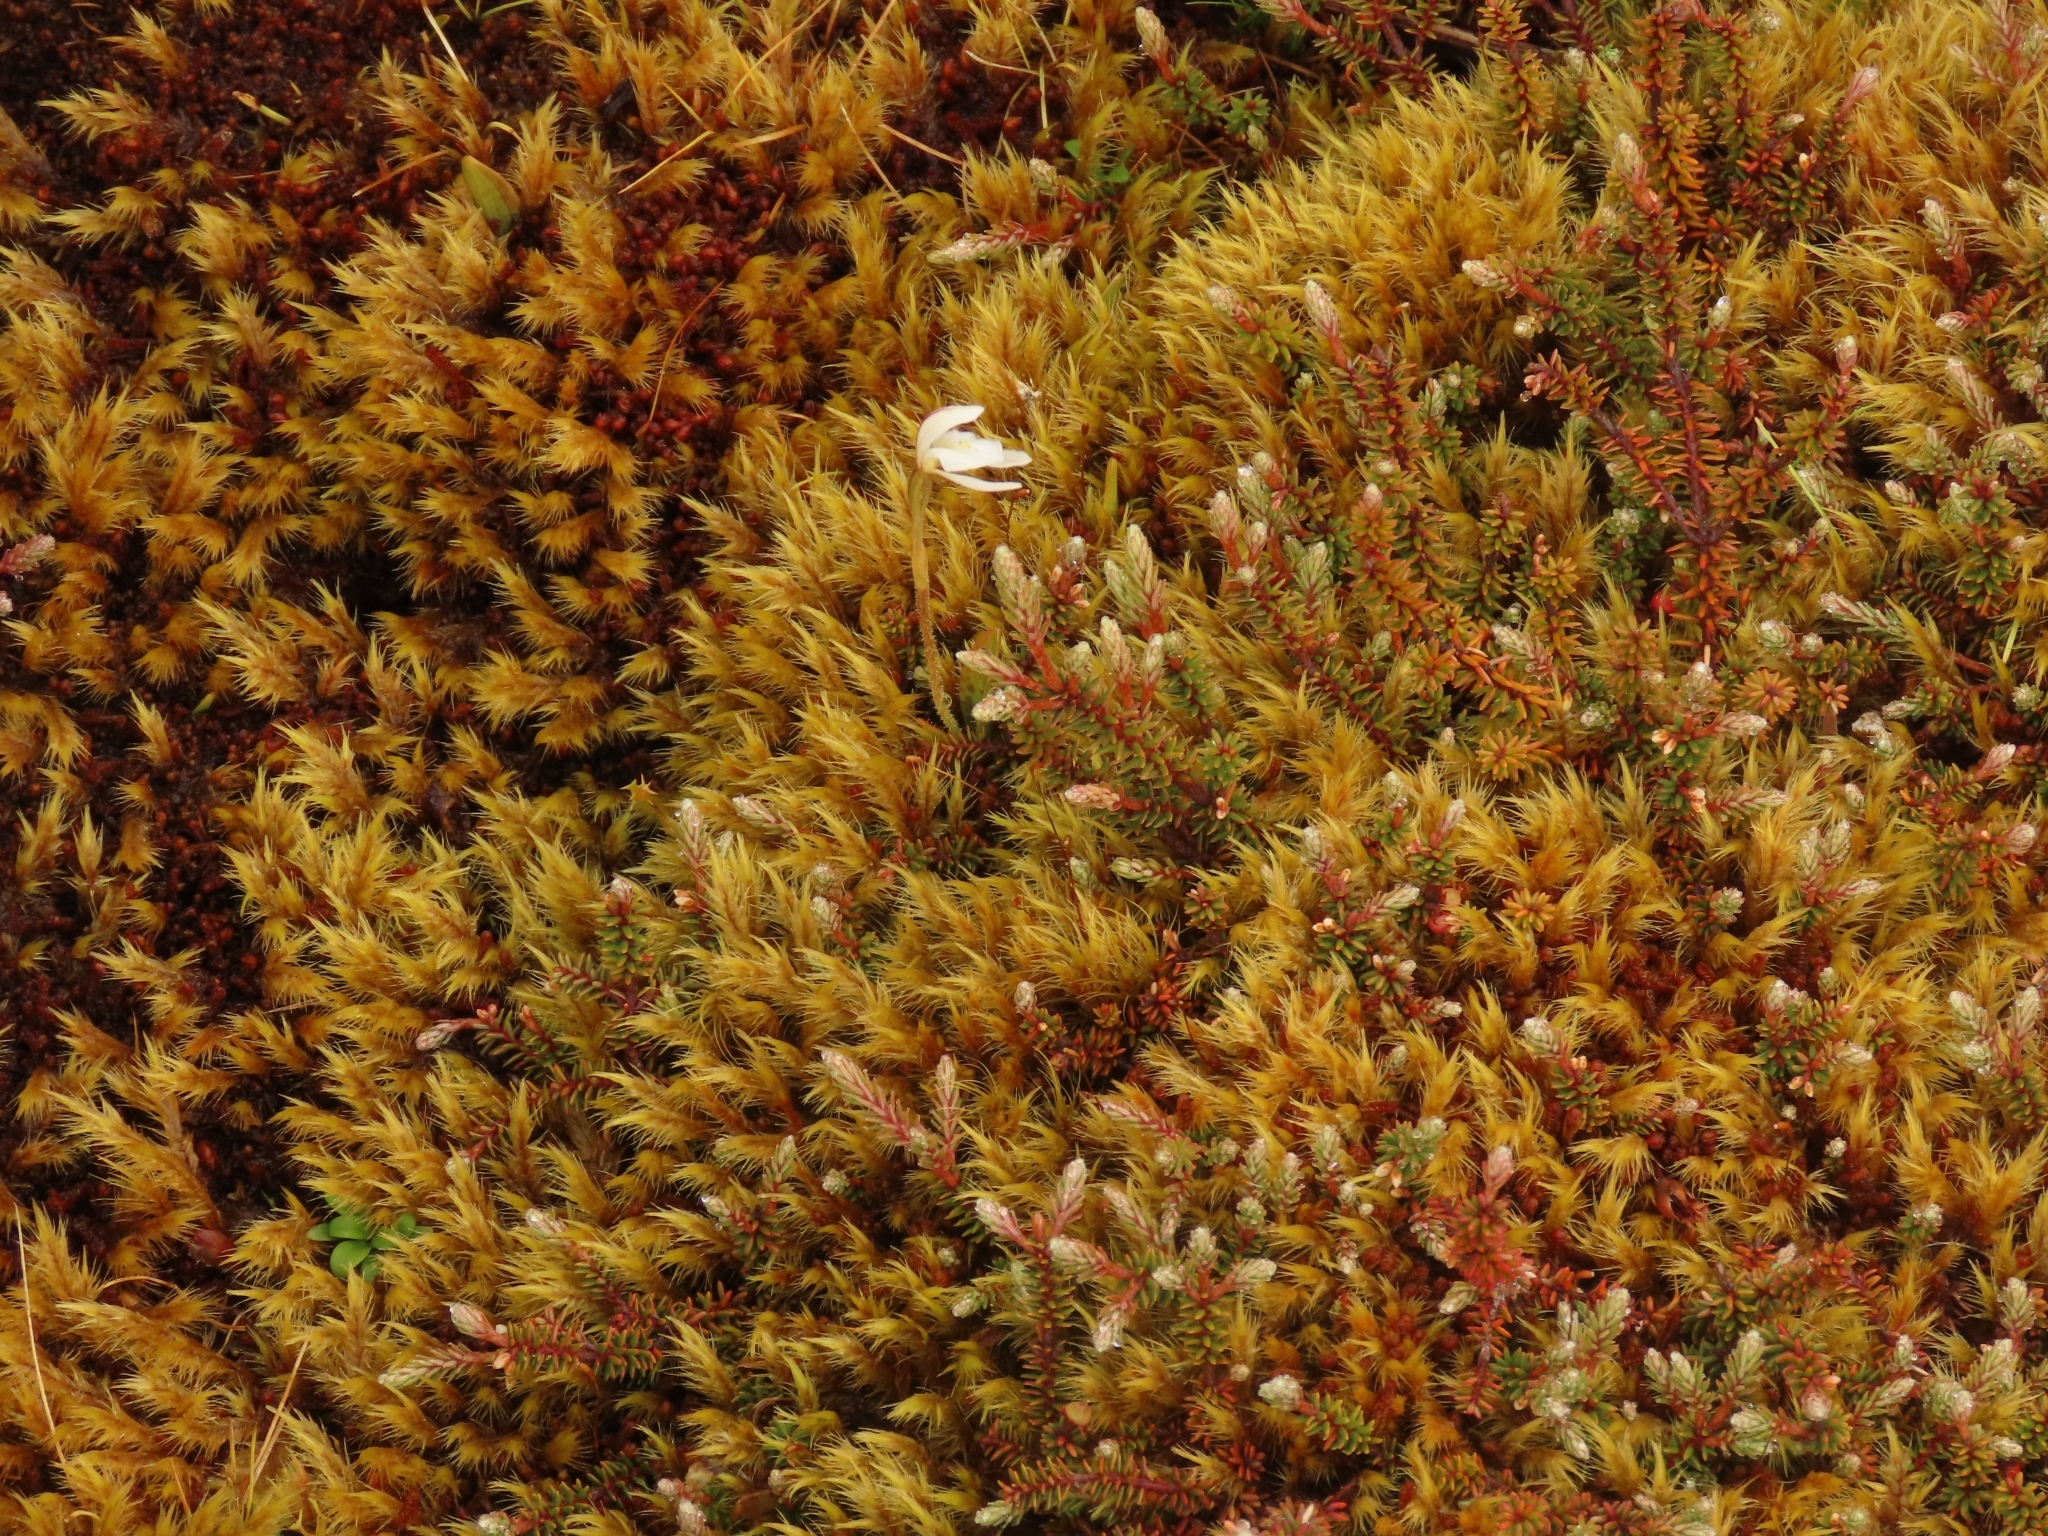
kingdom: Plantae
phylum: Tracheophyta
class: Liliopsida
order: Asparagales
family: Orchidaceae
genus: Aporostylis
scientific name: Aporostylis bifolia
